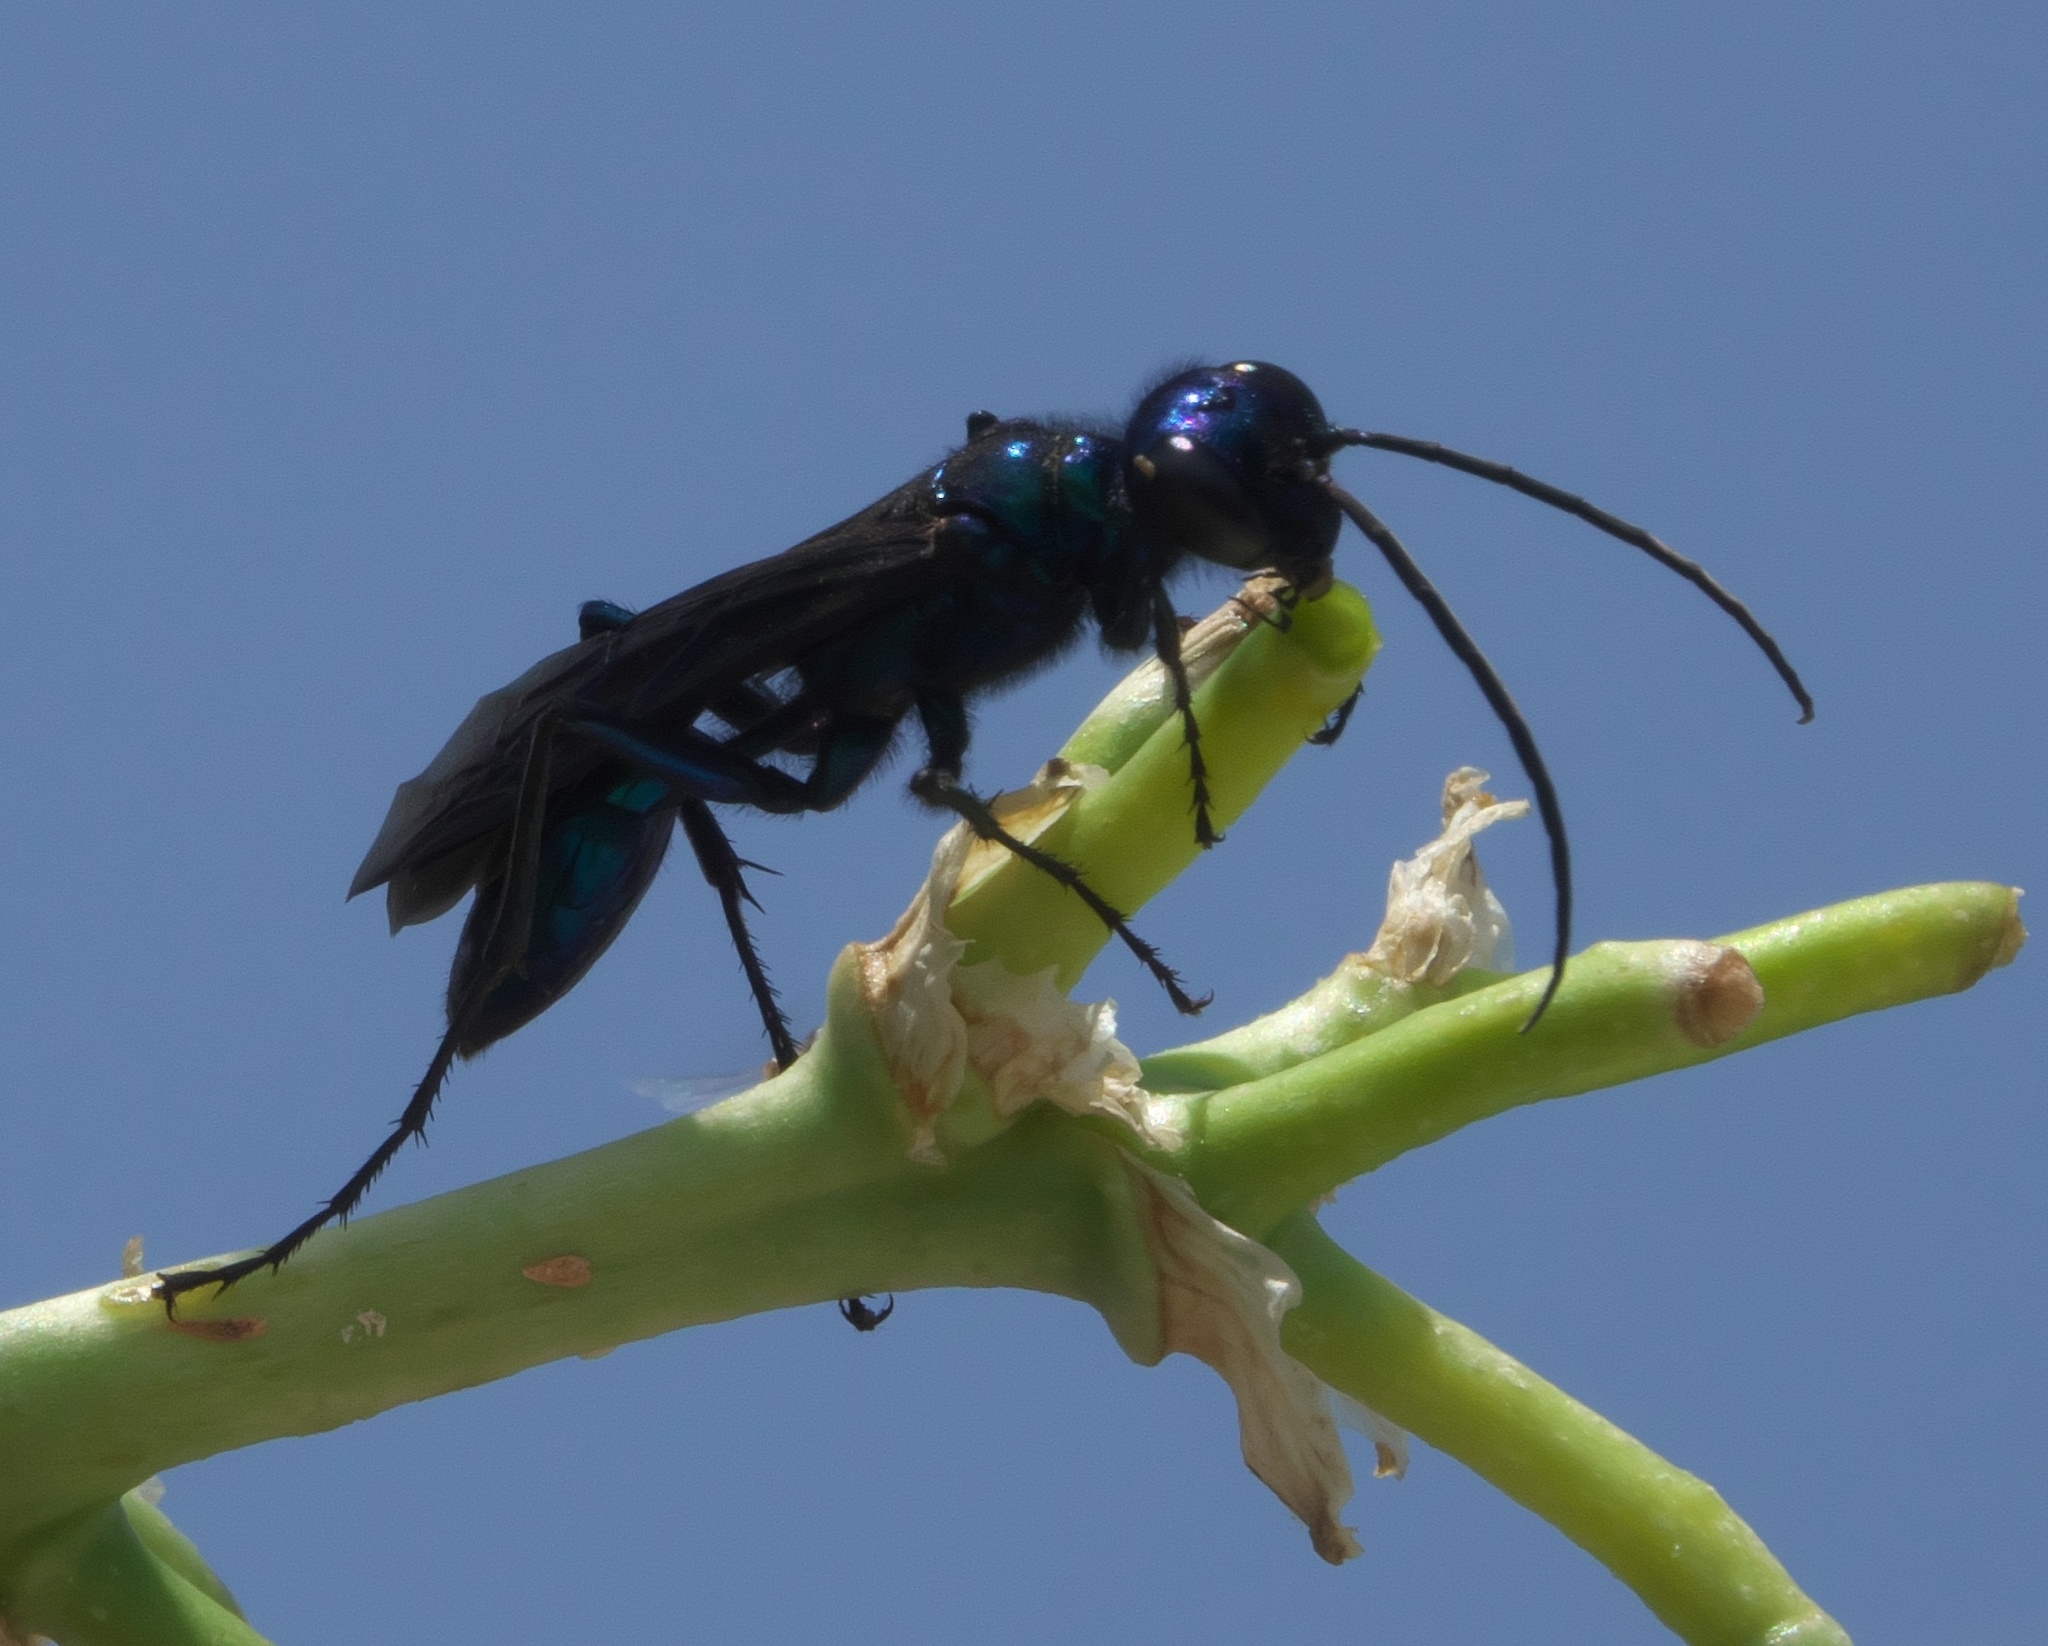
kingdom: Animalia
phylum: Arthropoda
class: Insecta
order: Hymenoptera
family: Sphecidae
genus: Chalybion
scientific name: Chalybion californicum
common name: Mud dauber
